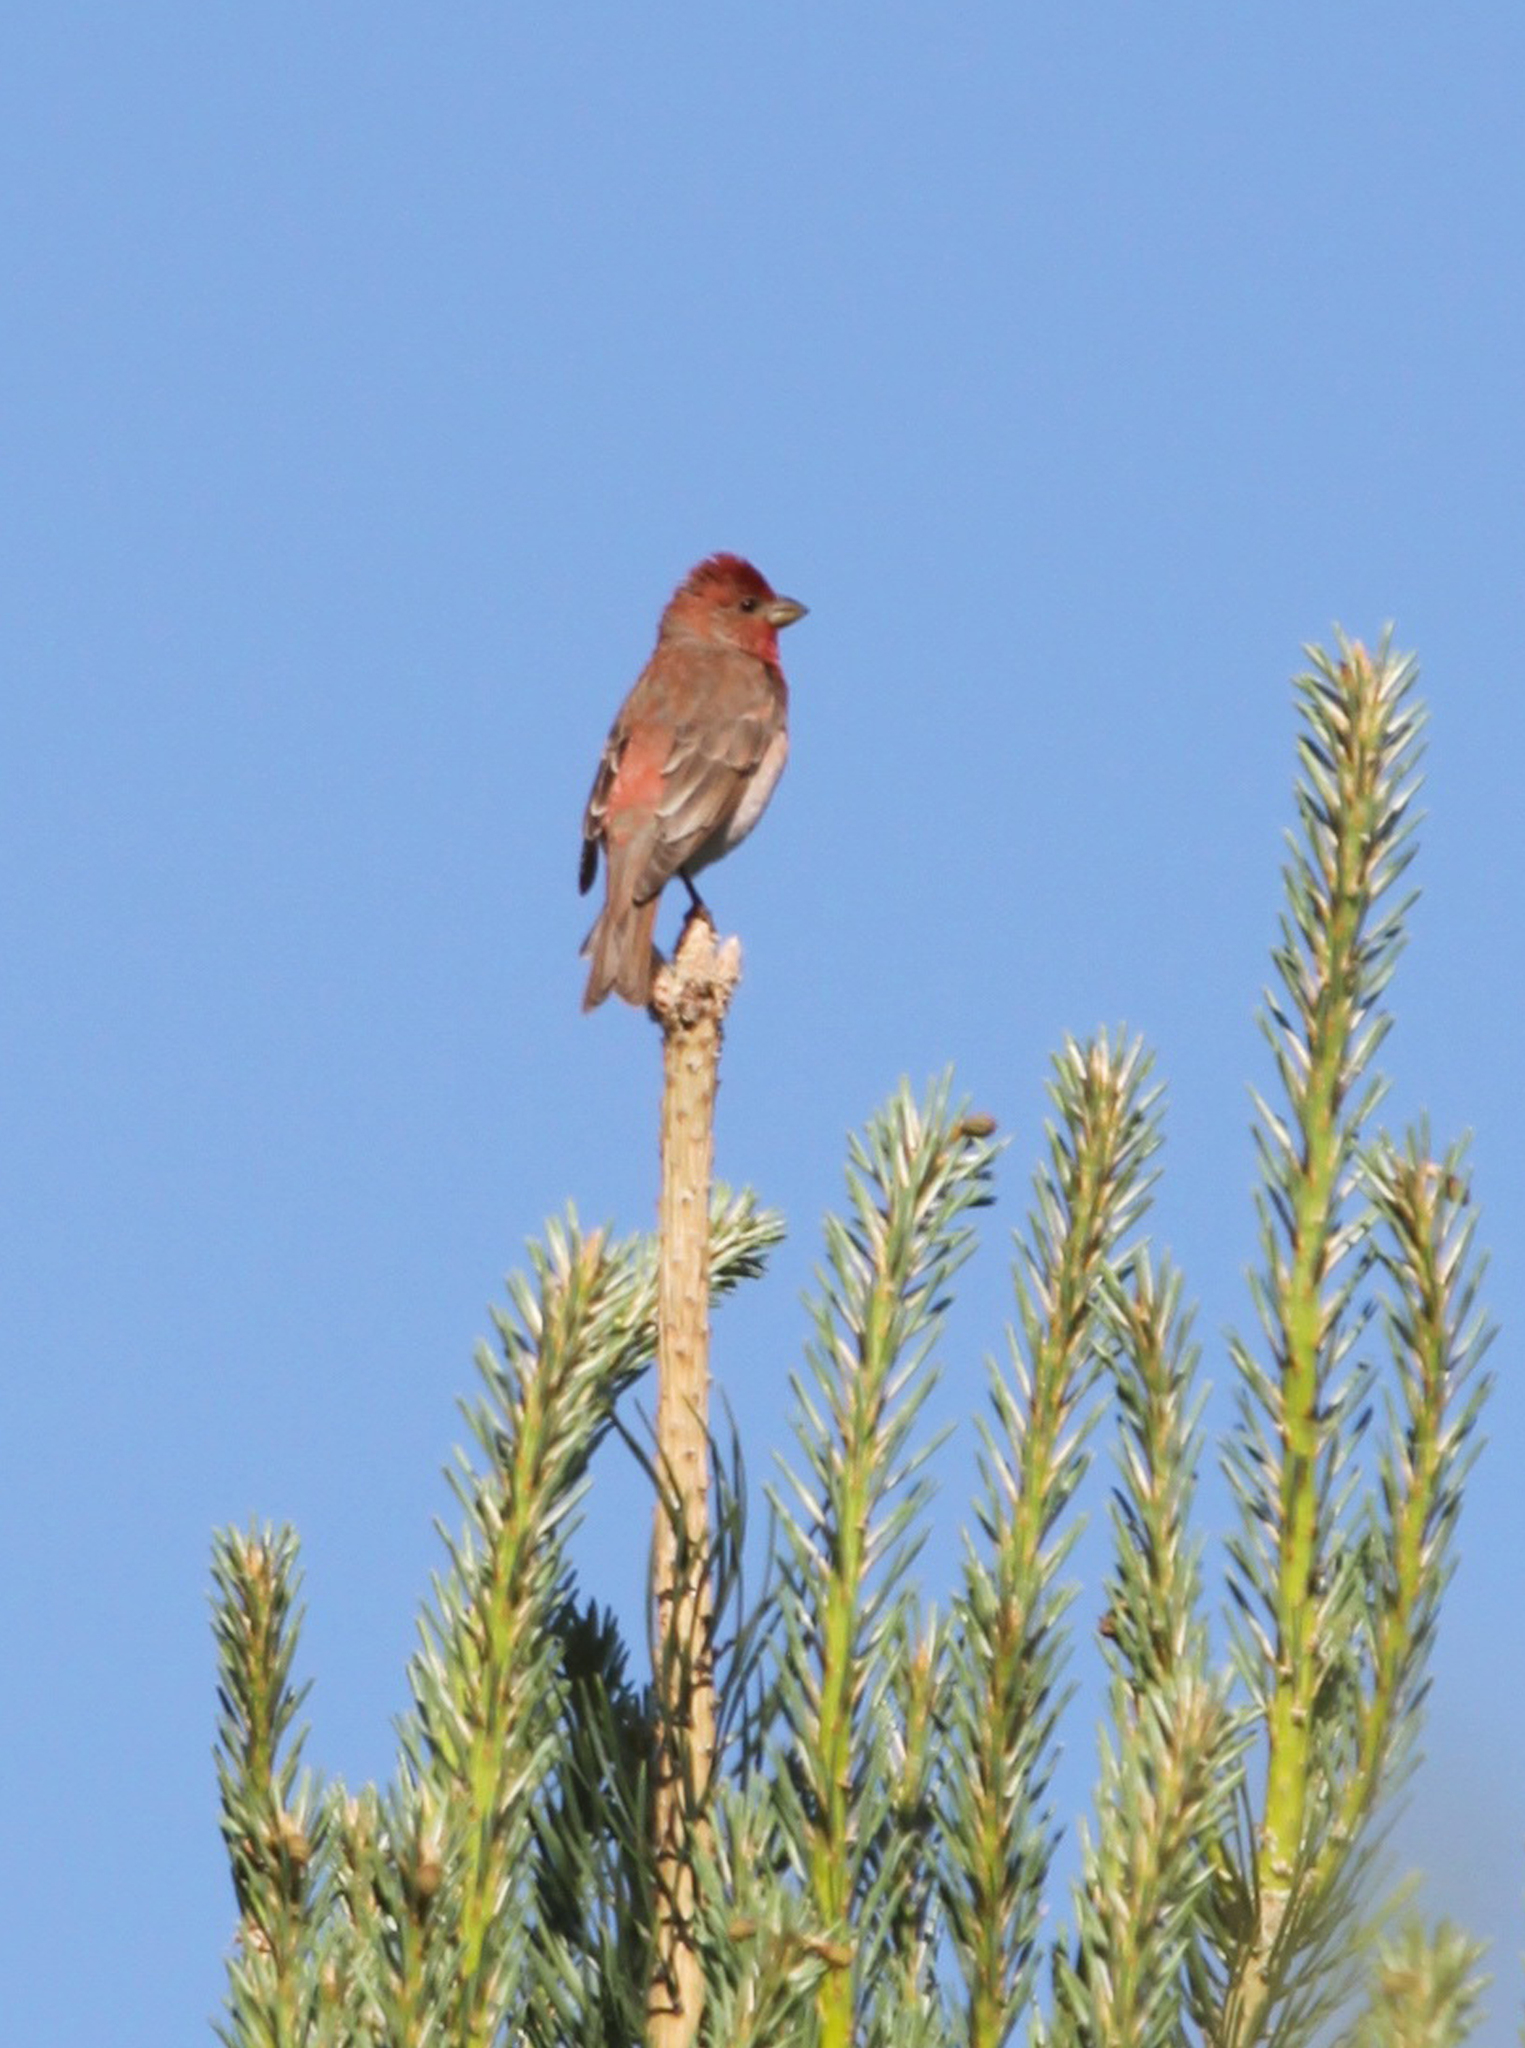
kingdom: Animalia
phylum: Chordata
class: Aves
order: Passeriformes
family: Fringillidae
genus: Carpodacus
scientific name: Carpodacus erythrinus
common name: Common rosefinch
